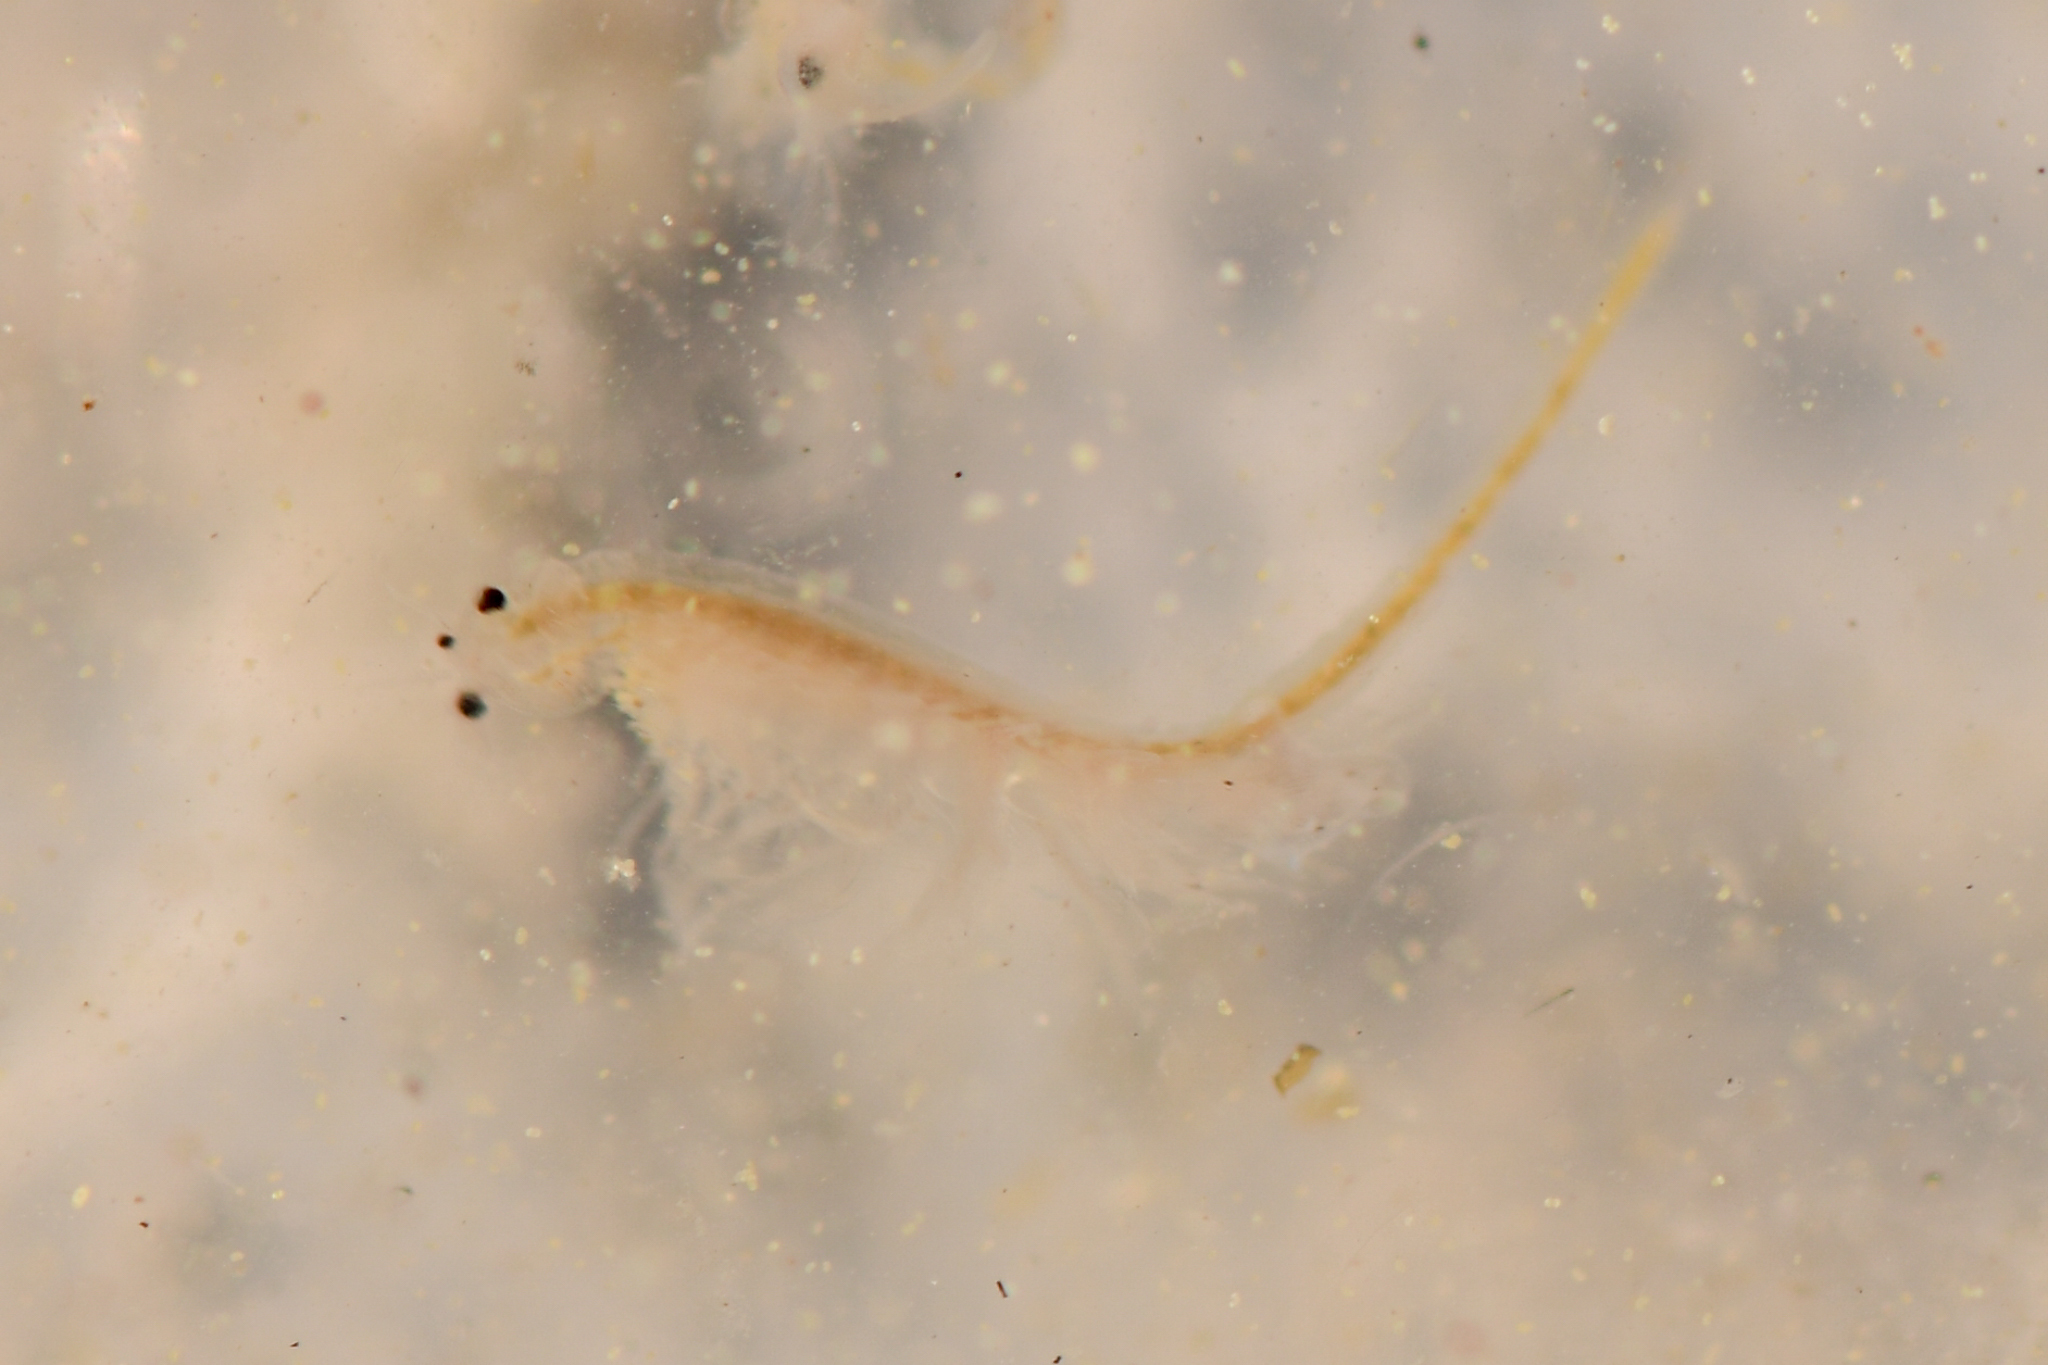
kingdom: Animalia
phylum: Arthropoda
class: Branchiopoda
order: Anostraca
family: Artemiidae
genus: Artemia
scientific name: Artemia monica
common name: Mono lake brine shrimp
